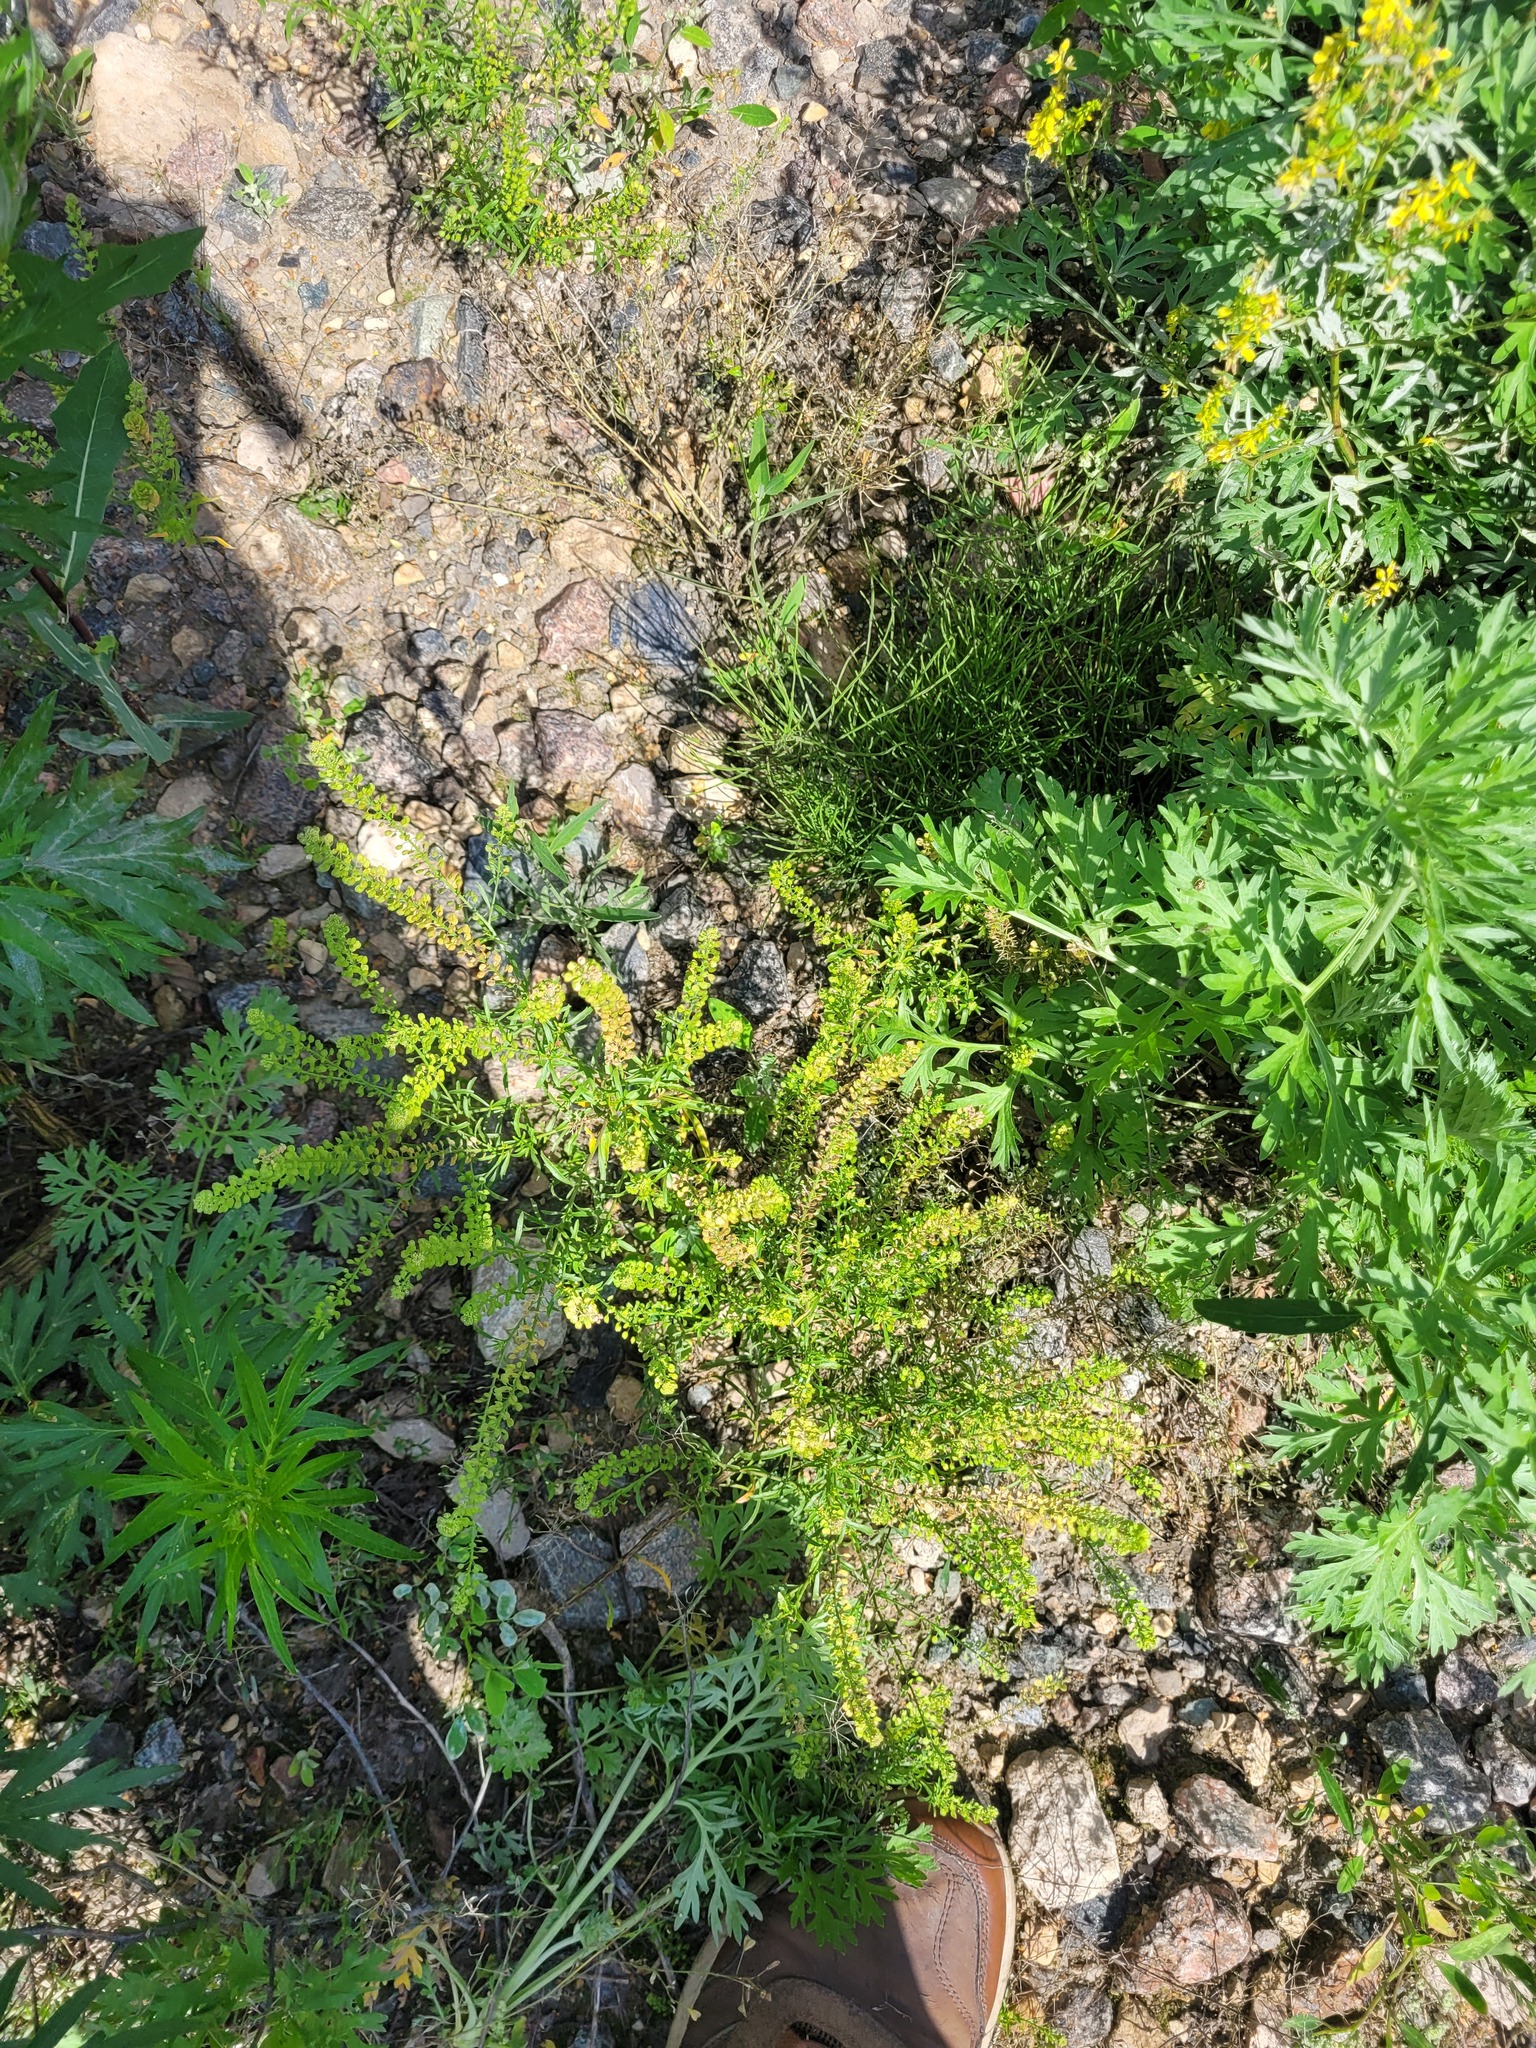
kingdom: Plantae
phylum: Tracheophyta
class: Magnoliopsida
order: Brassicales
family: Brassicaceae
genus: Lepidium
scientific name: Lepidium densiflorum
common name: Miner's pepperwort
